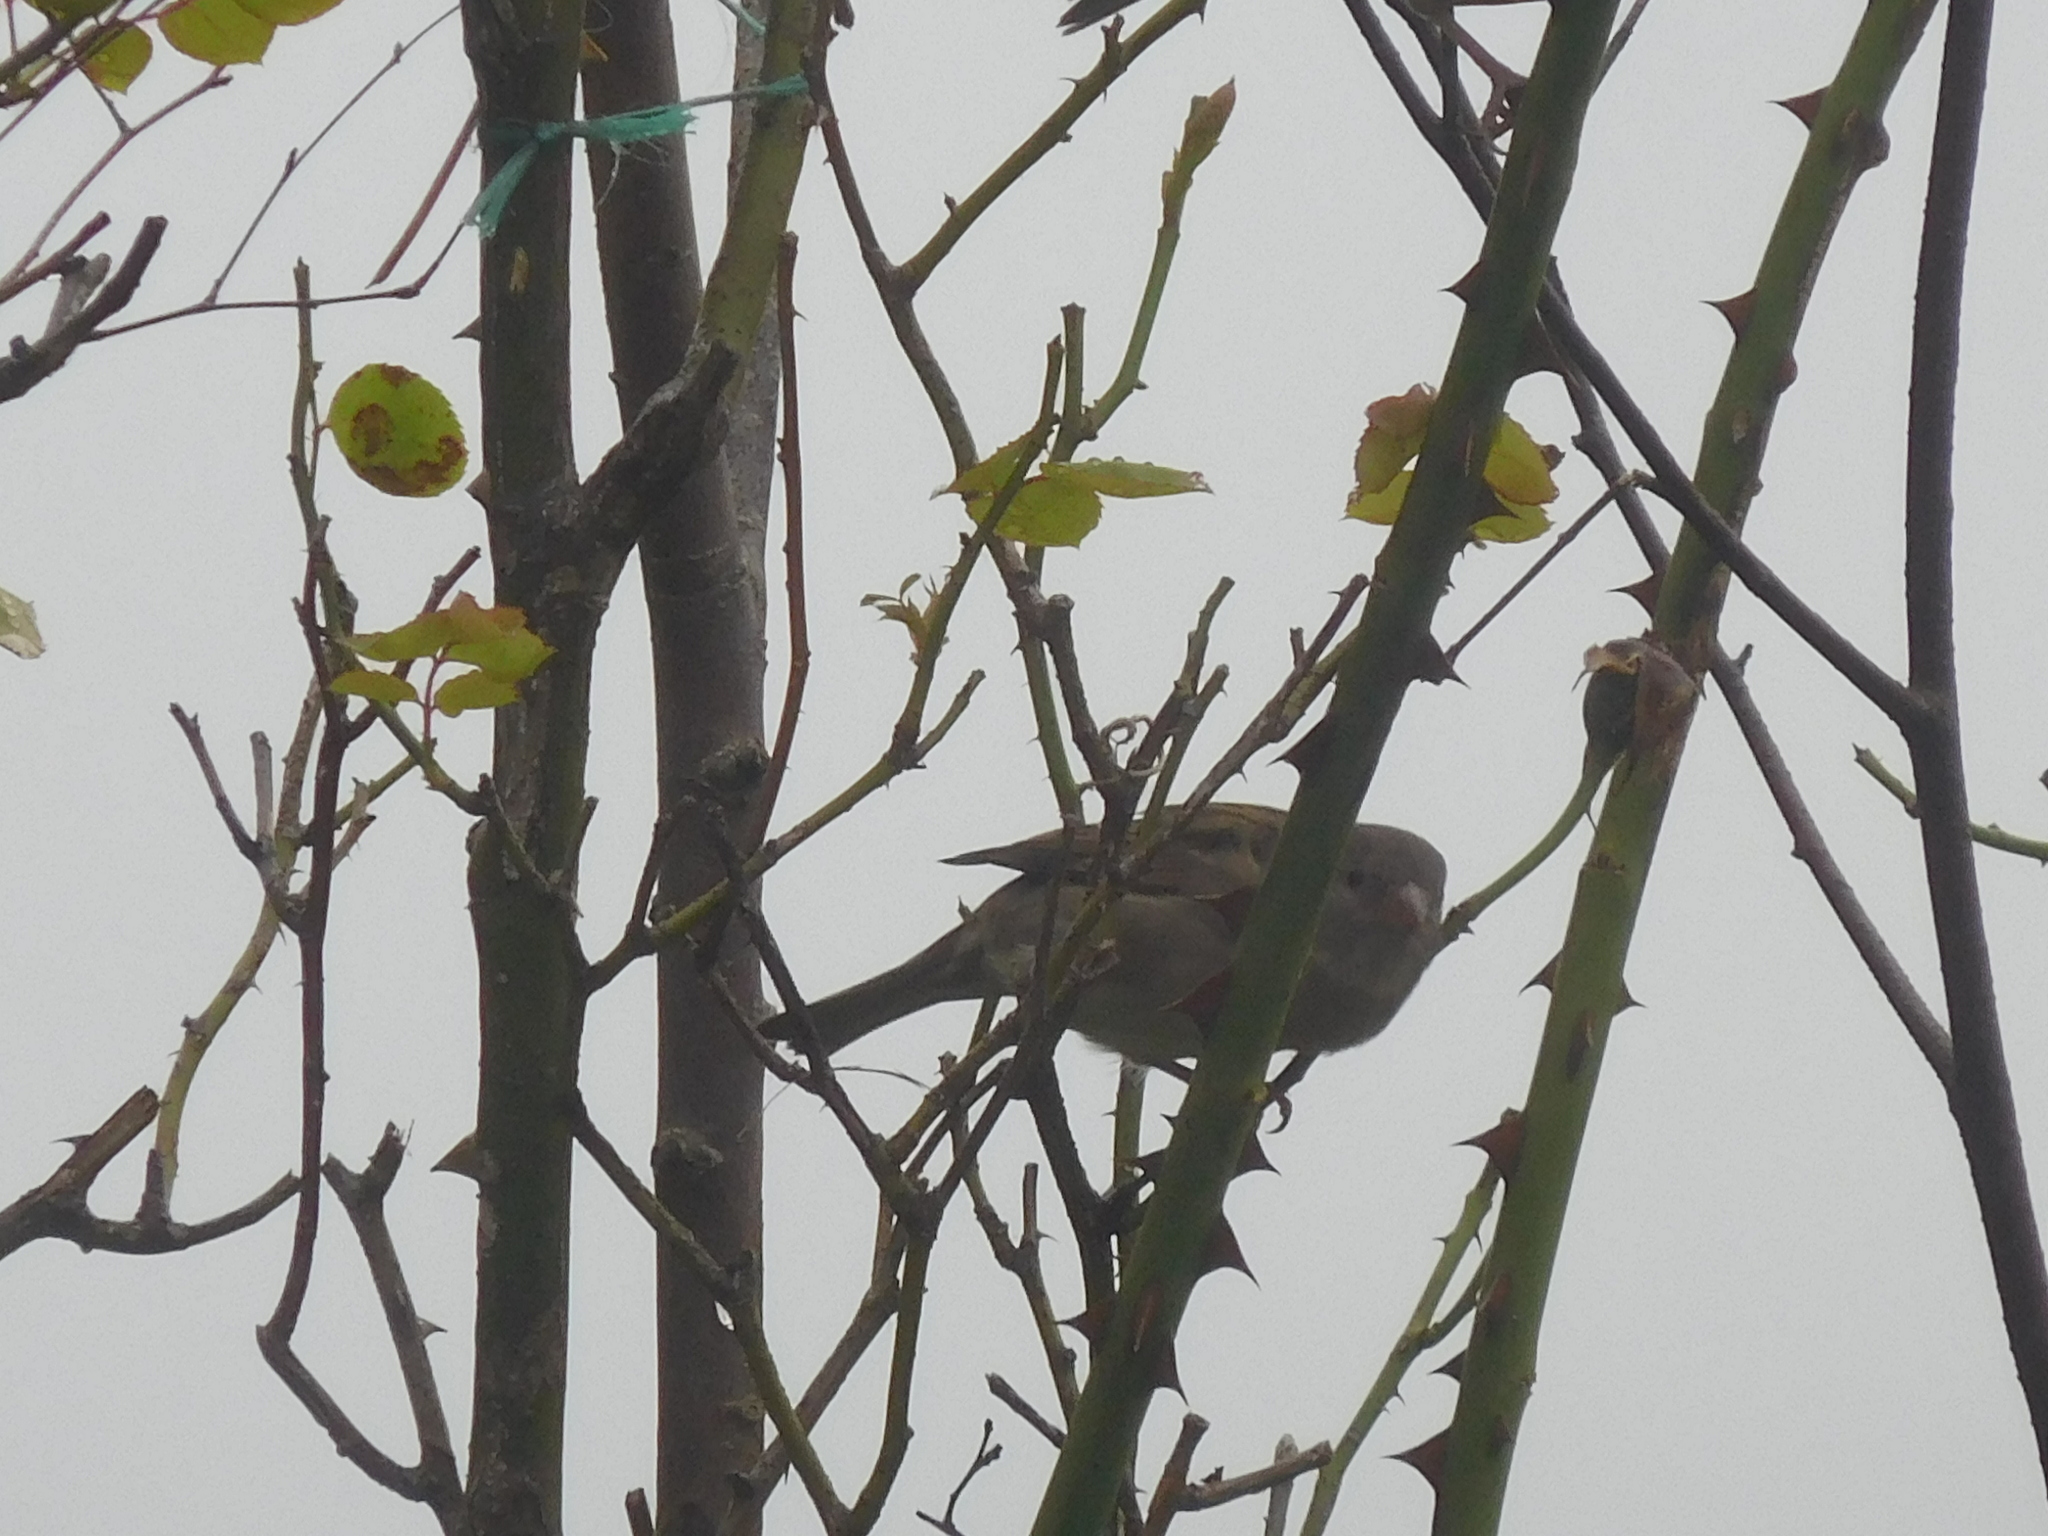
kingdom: Animalia
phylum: Chordata
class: Aves
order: Passeriformes
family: Passeridae
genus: Passer
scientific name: Passer domesticus
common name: House sparrow
